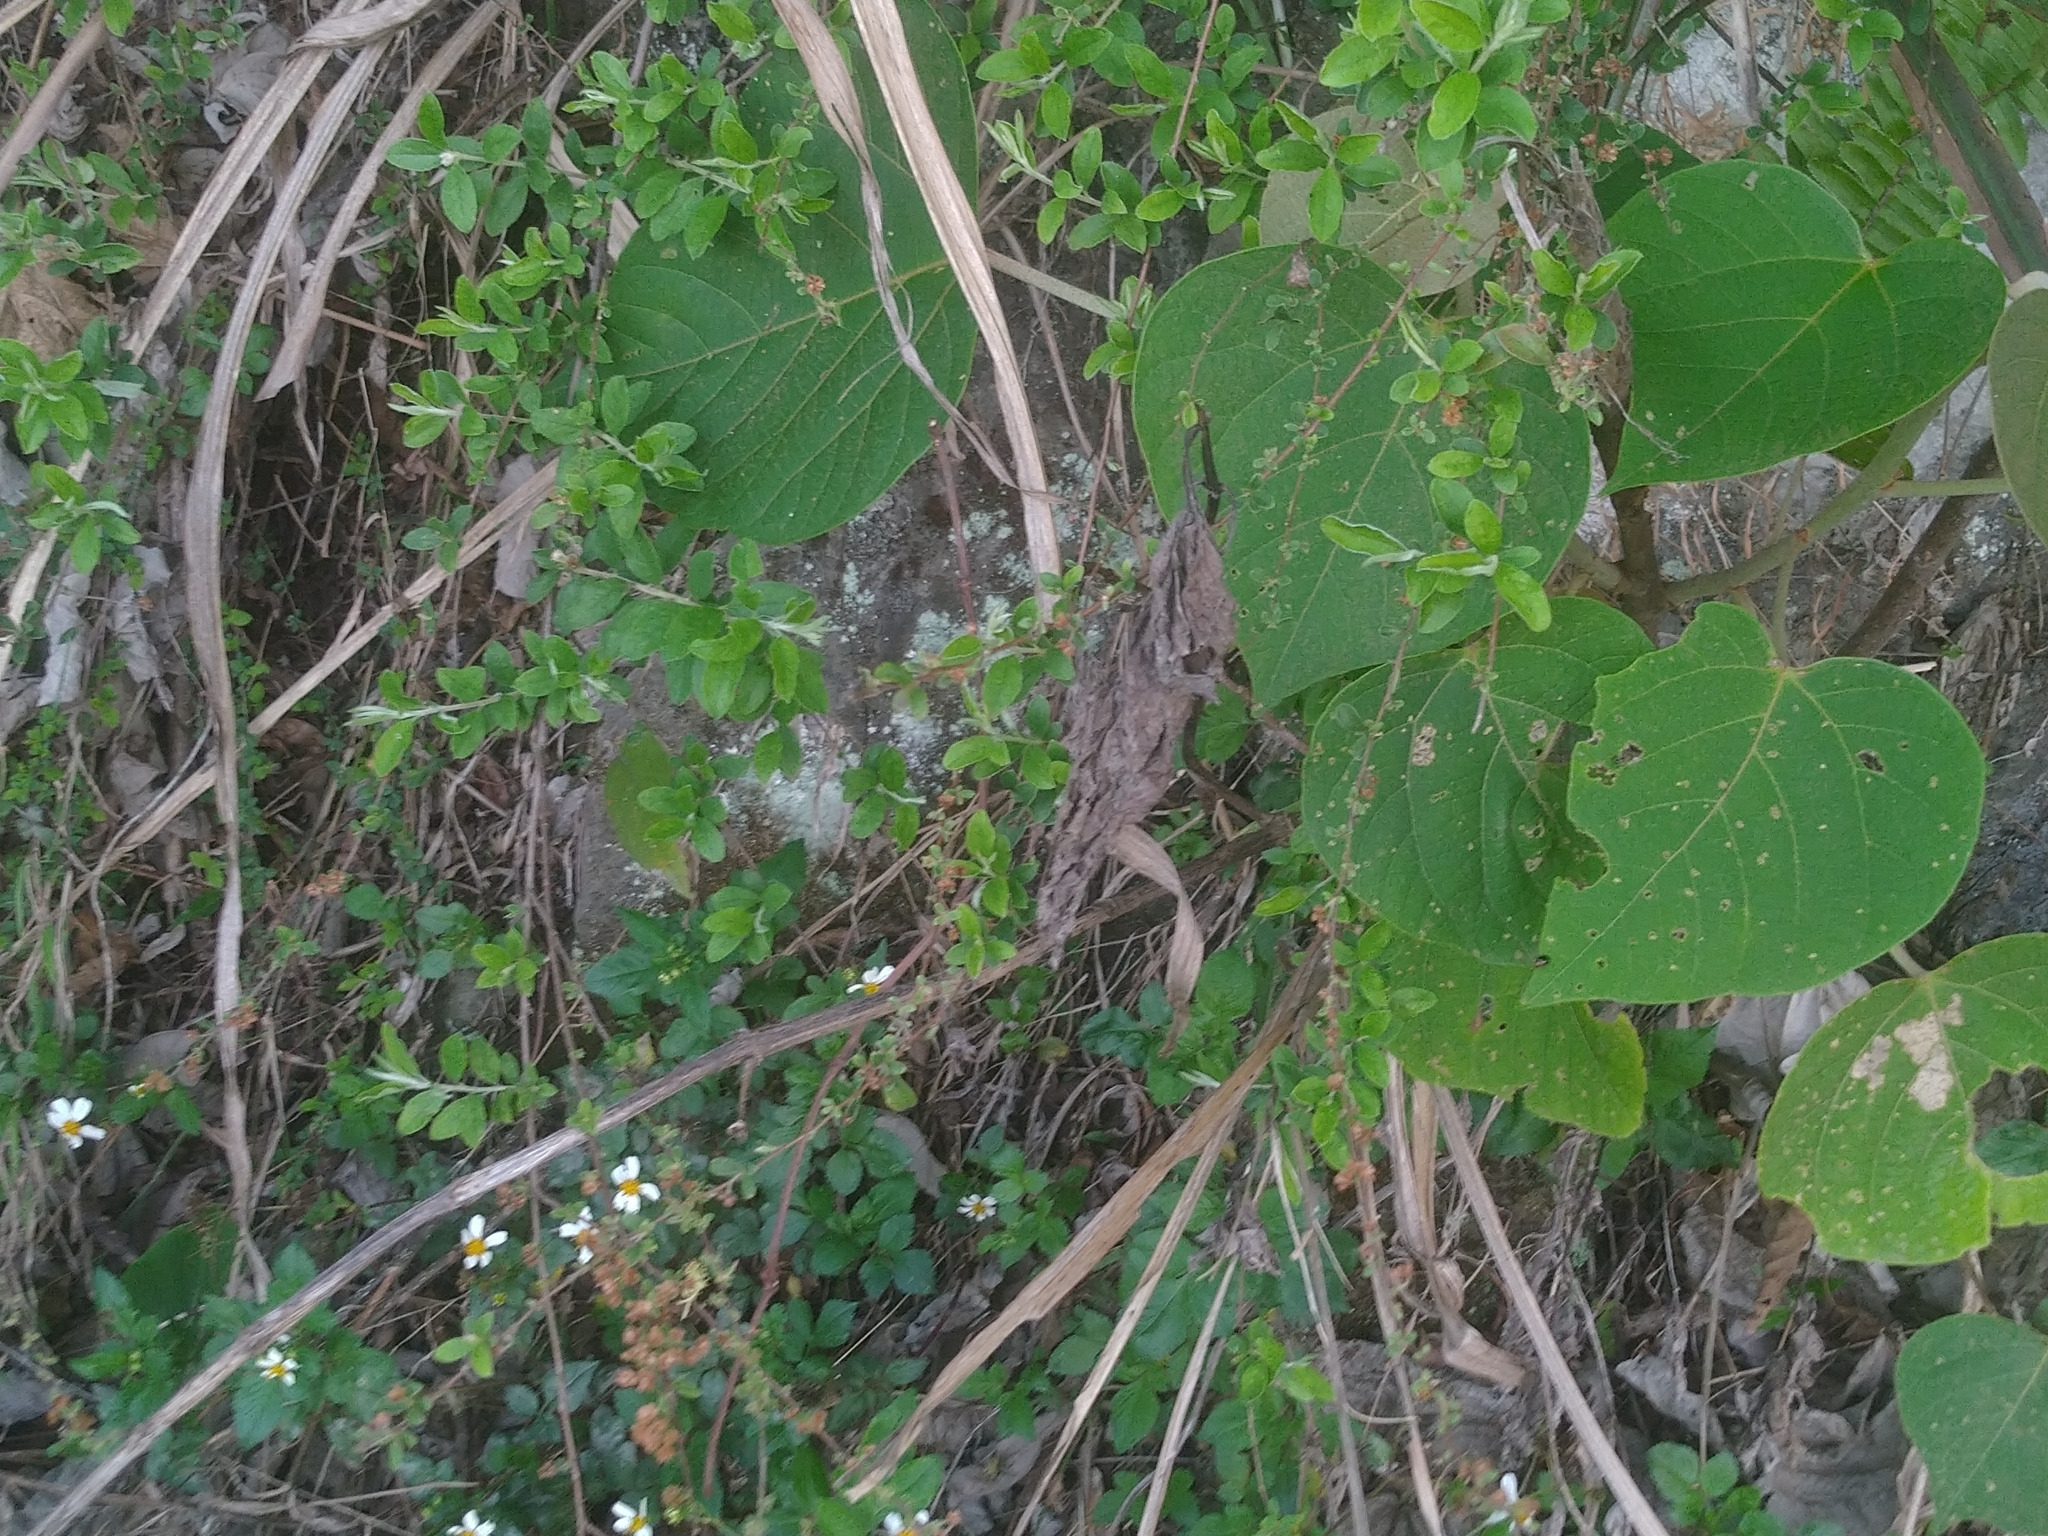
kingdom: Plantae
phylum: Tracheophyta
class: Magnoliopsida
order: Malpighiales
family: Euphorbiaceae
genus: Mallotus
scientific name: Mallotus japonicus
